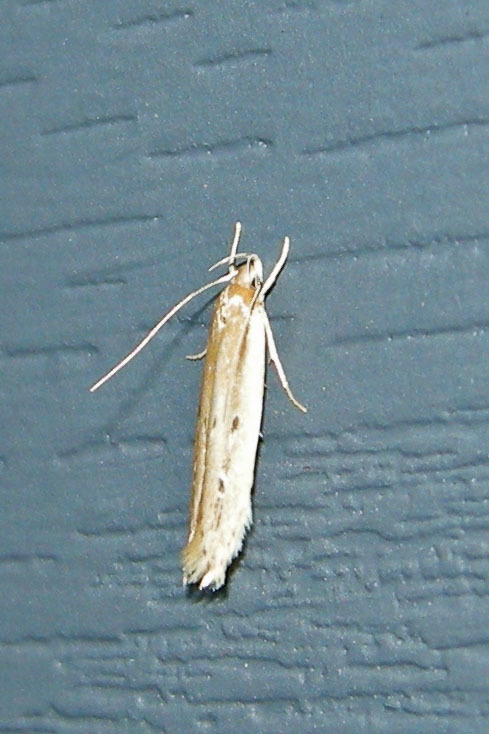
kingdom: Animalia
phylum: Arthropoda
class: Insecta
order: Lepidoptera
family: Cosmopterigidae
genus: Limnaecia
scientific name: Limnaecia phragmitella
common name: Bulrush cosmet
